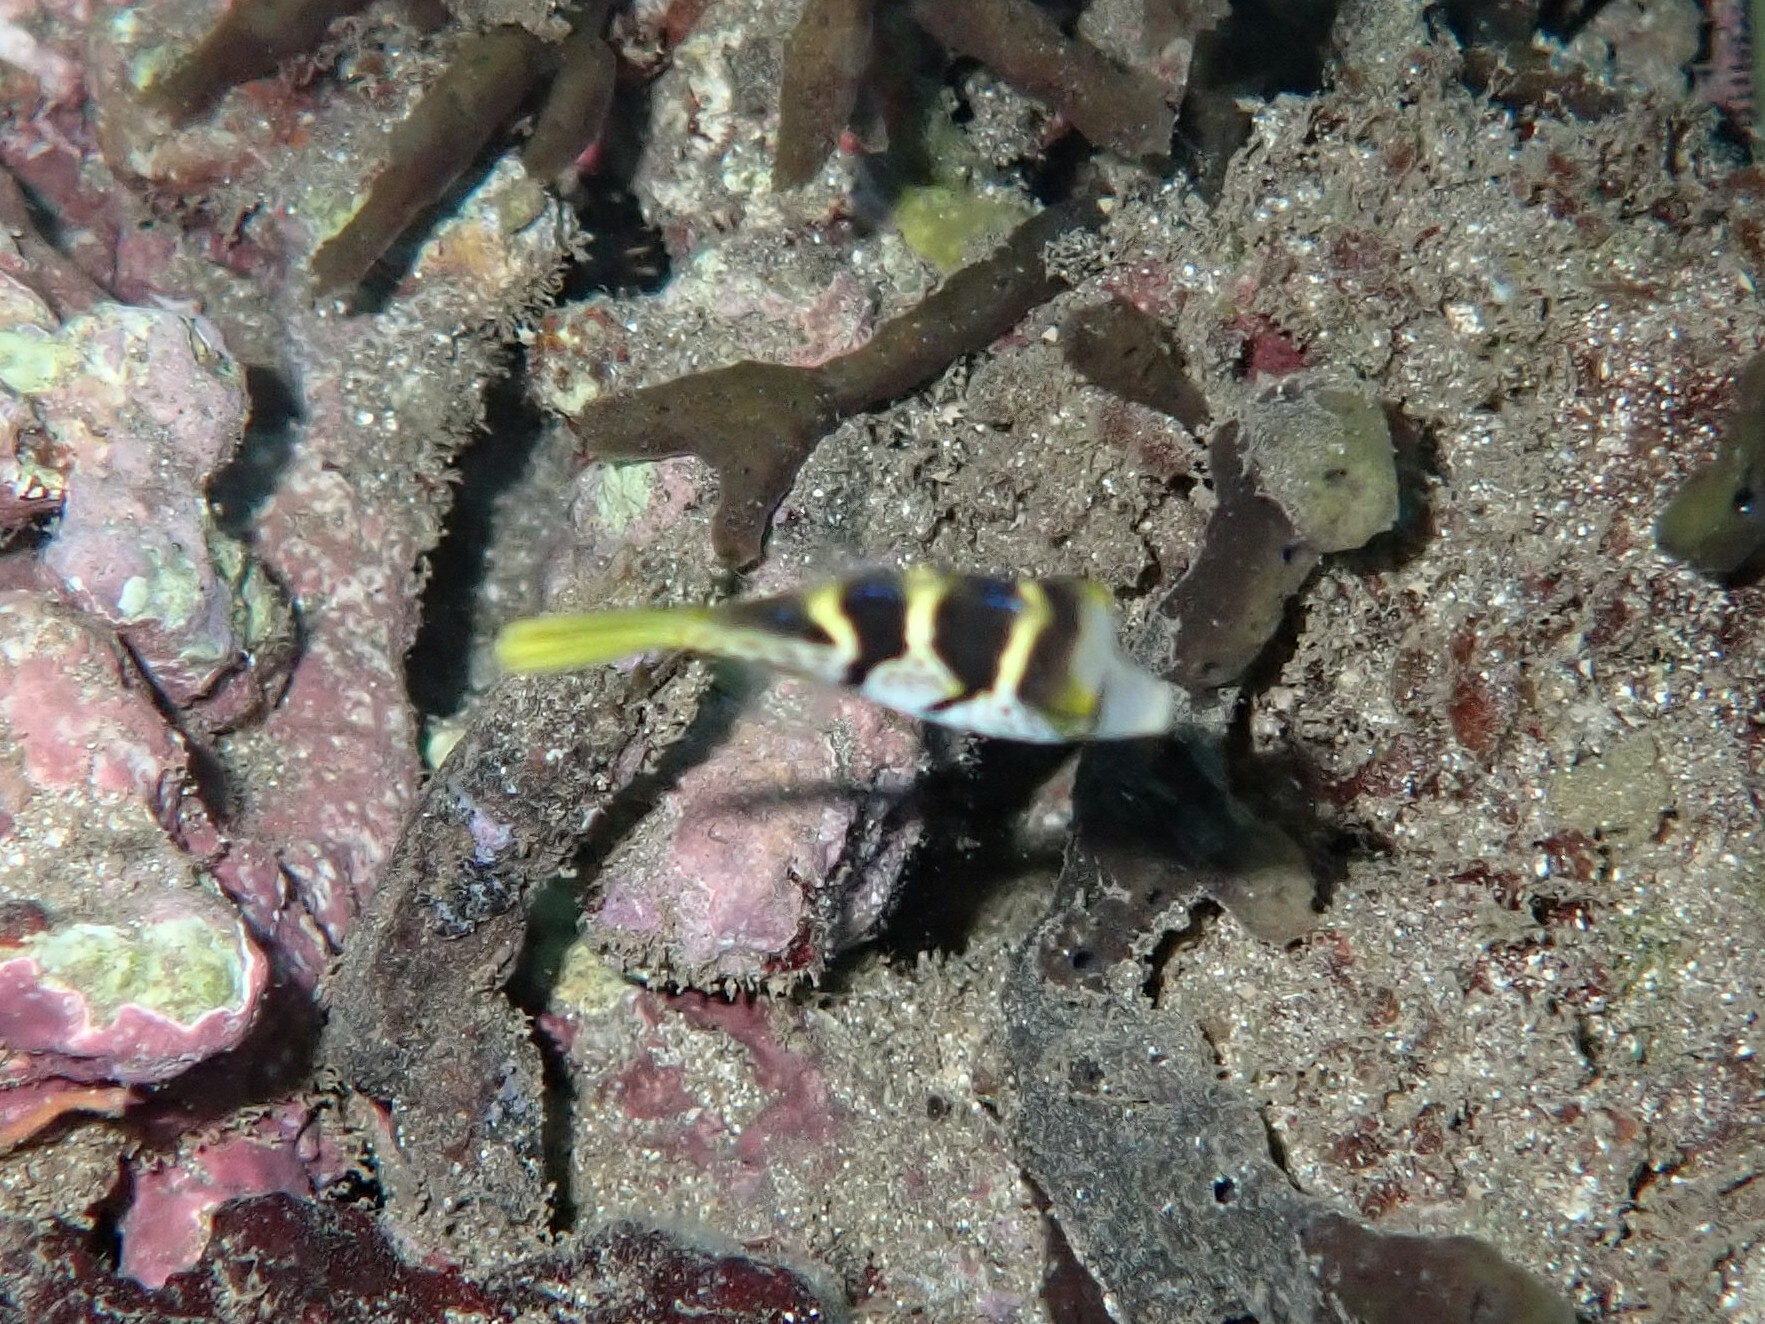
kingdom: Animalia
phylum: Chordata
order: Tetraodontiformes
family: Tetraodontidae
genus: Canthigaster
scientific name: Canthigaster valentini
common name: Banded toby
